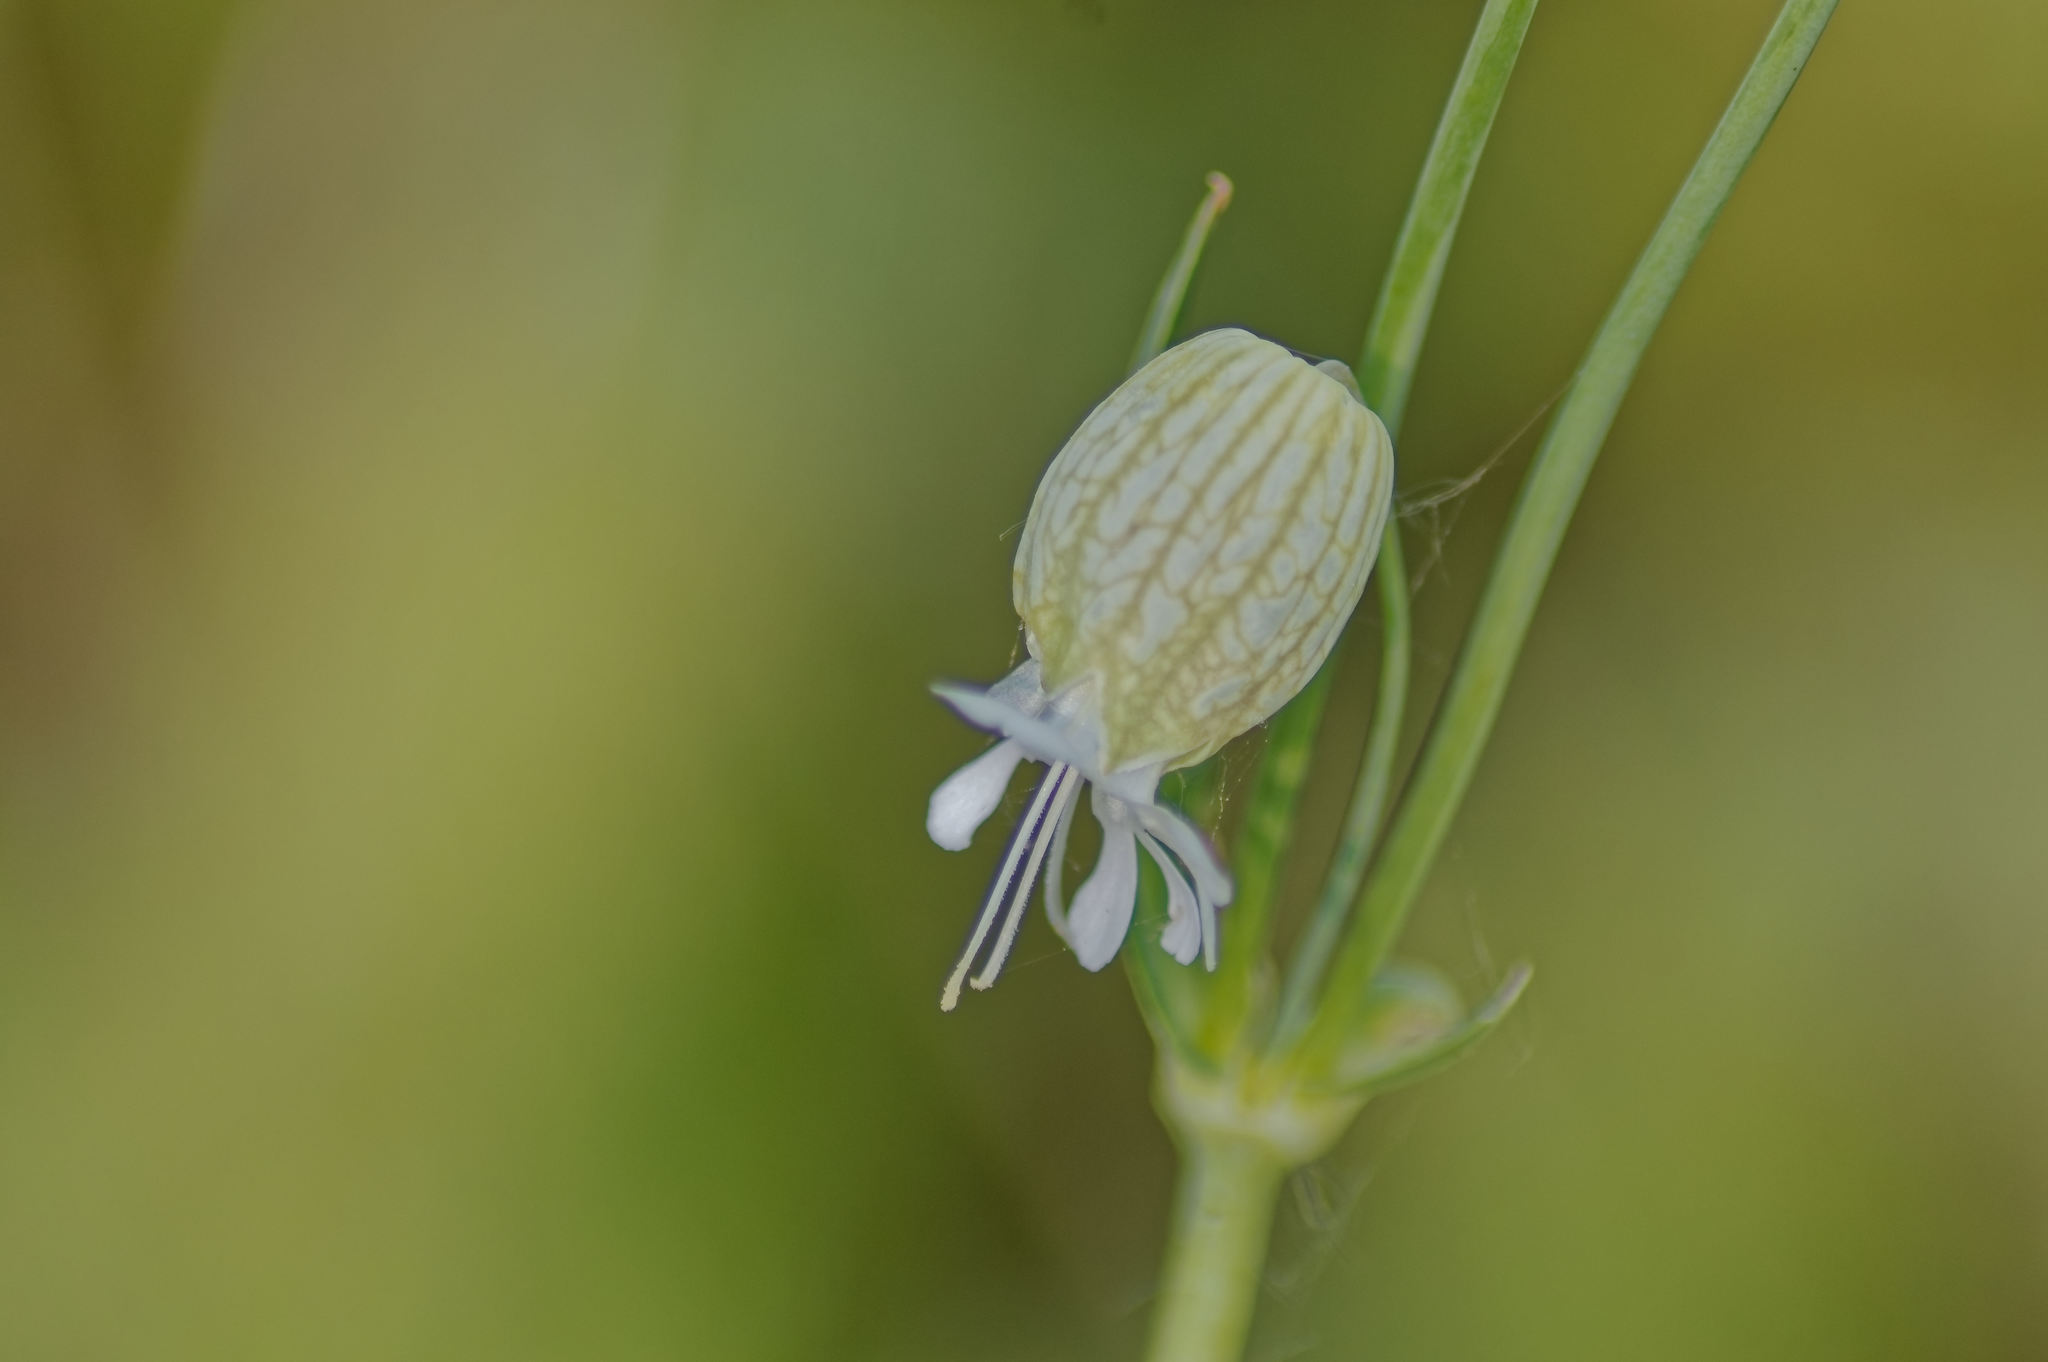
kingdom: Plantae
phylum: Tracheophyta
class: Magnoliopsida
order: Caryophyllales
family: Caryophyllaceae
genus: Silene
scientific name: Silene vulgaris
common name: Bladder campion
